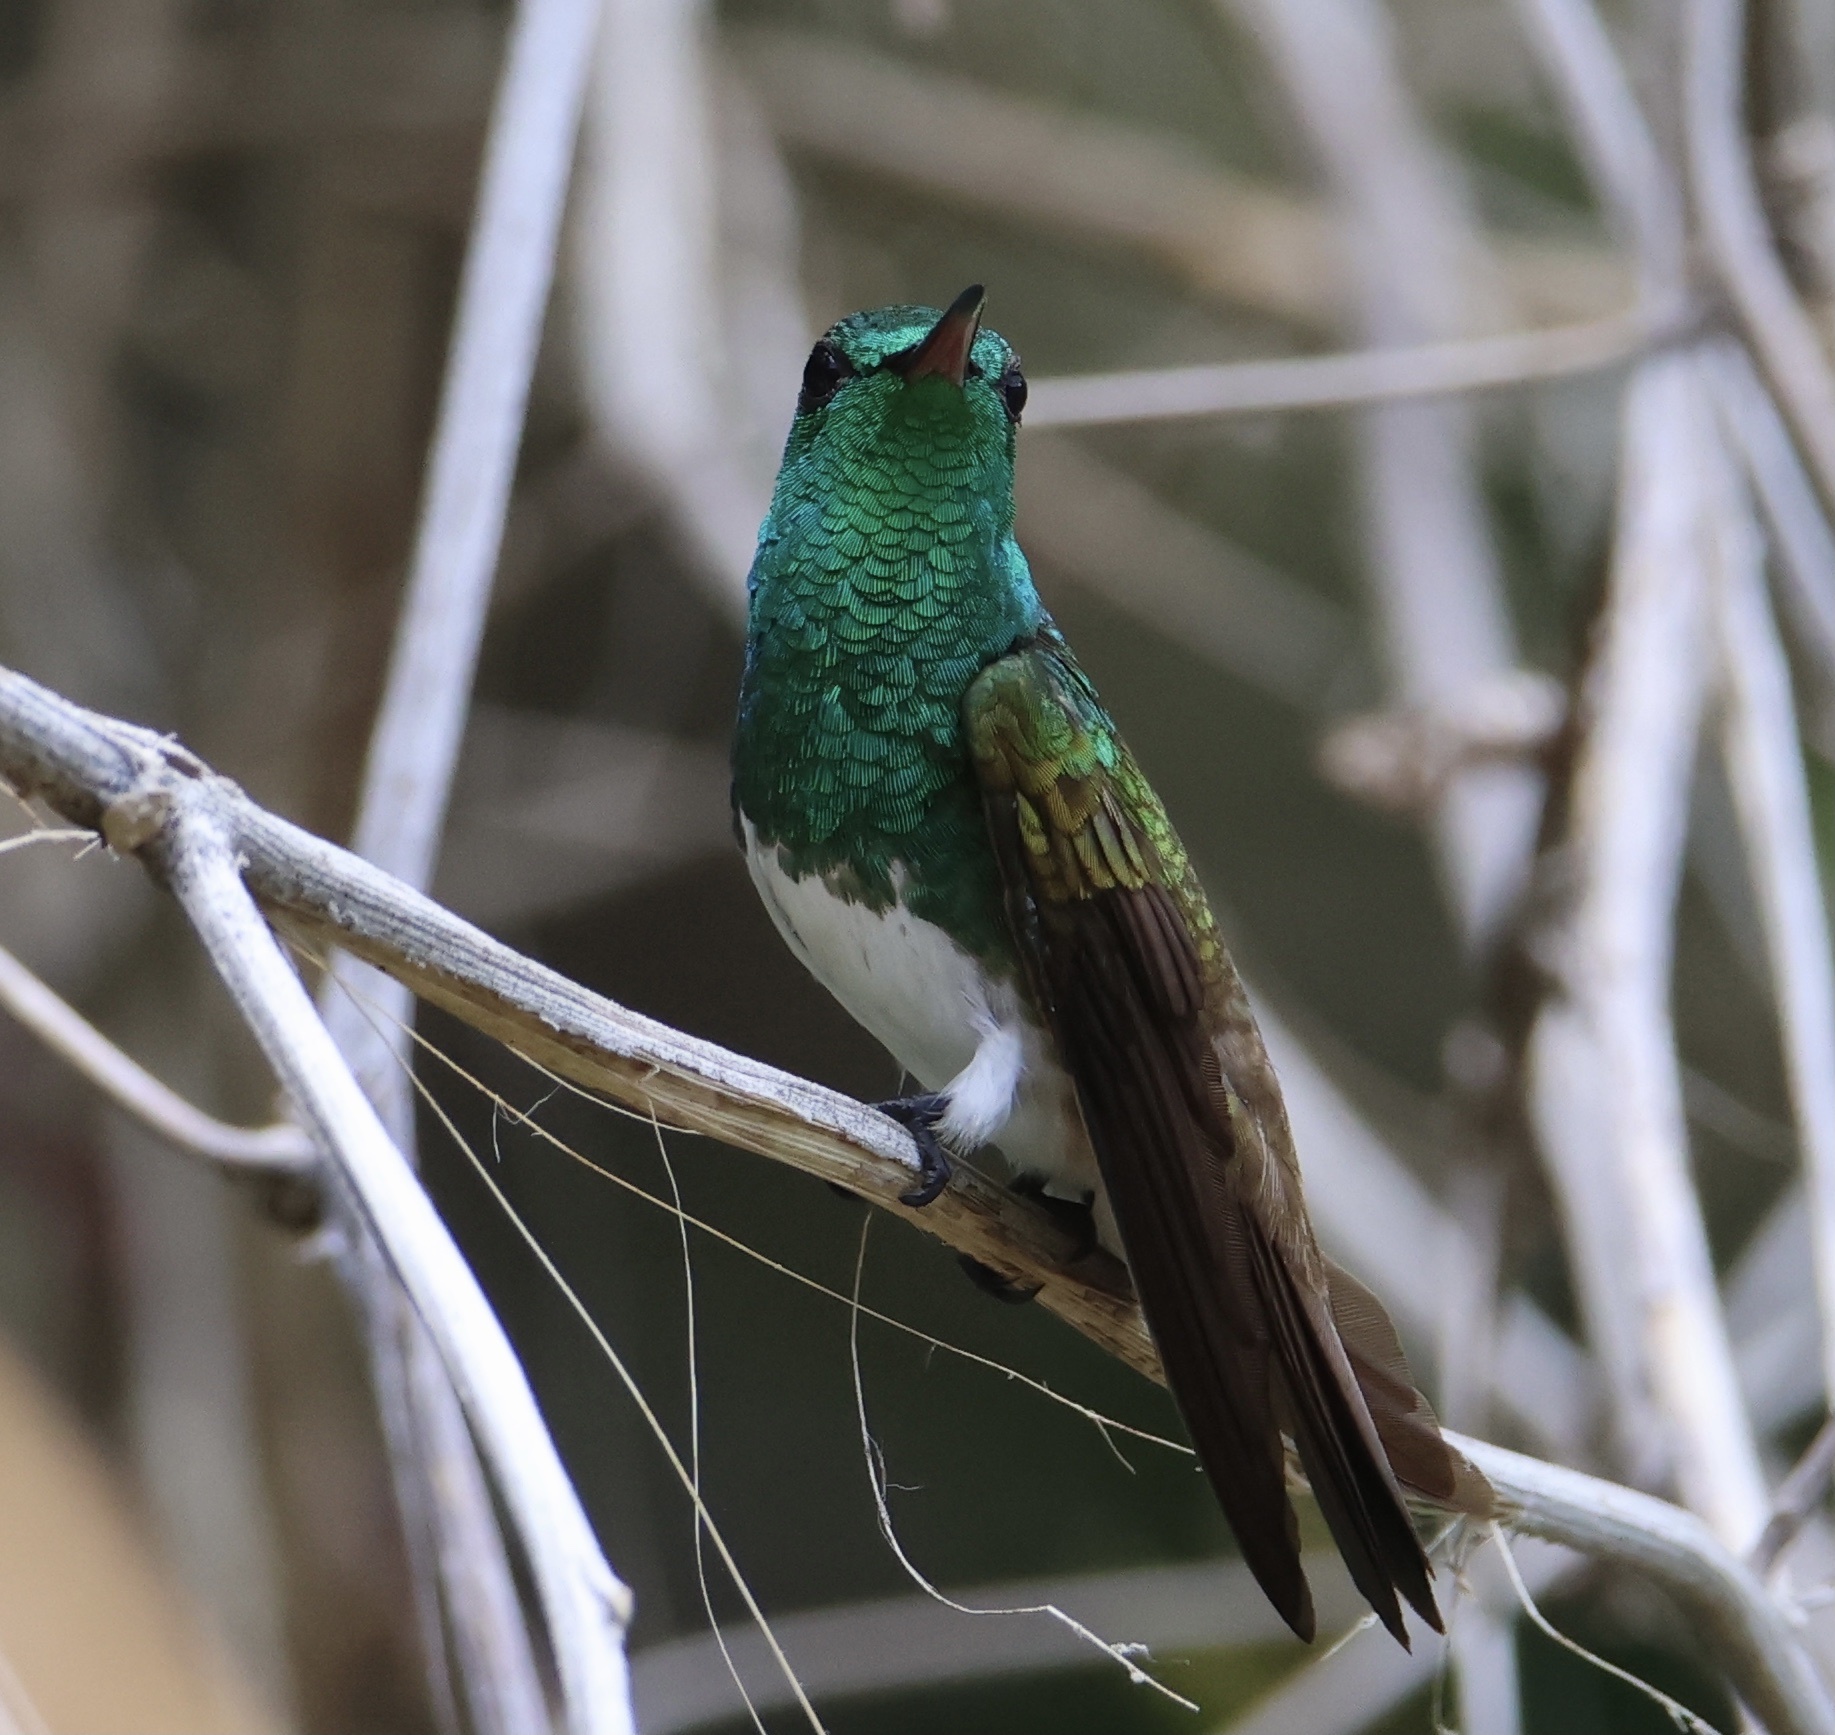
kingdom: Animalia
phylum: Chordata
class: Aves
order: Apodiformes
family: Trochilidae
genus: Saucerottia
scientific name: Saucerottia edward
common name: Snowy-bellied hummingbird
